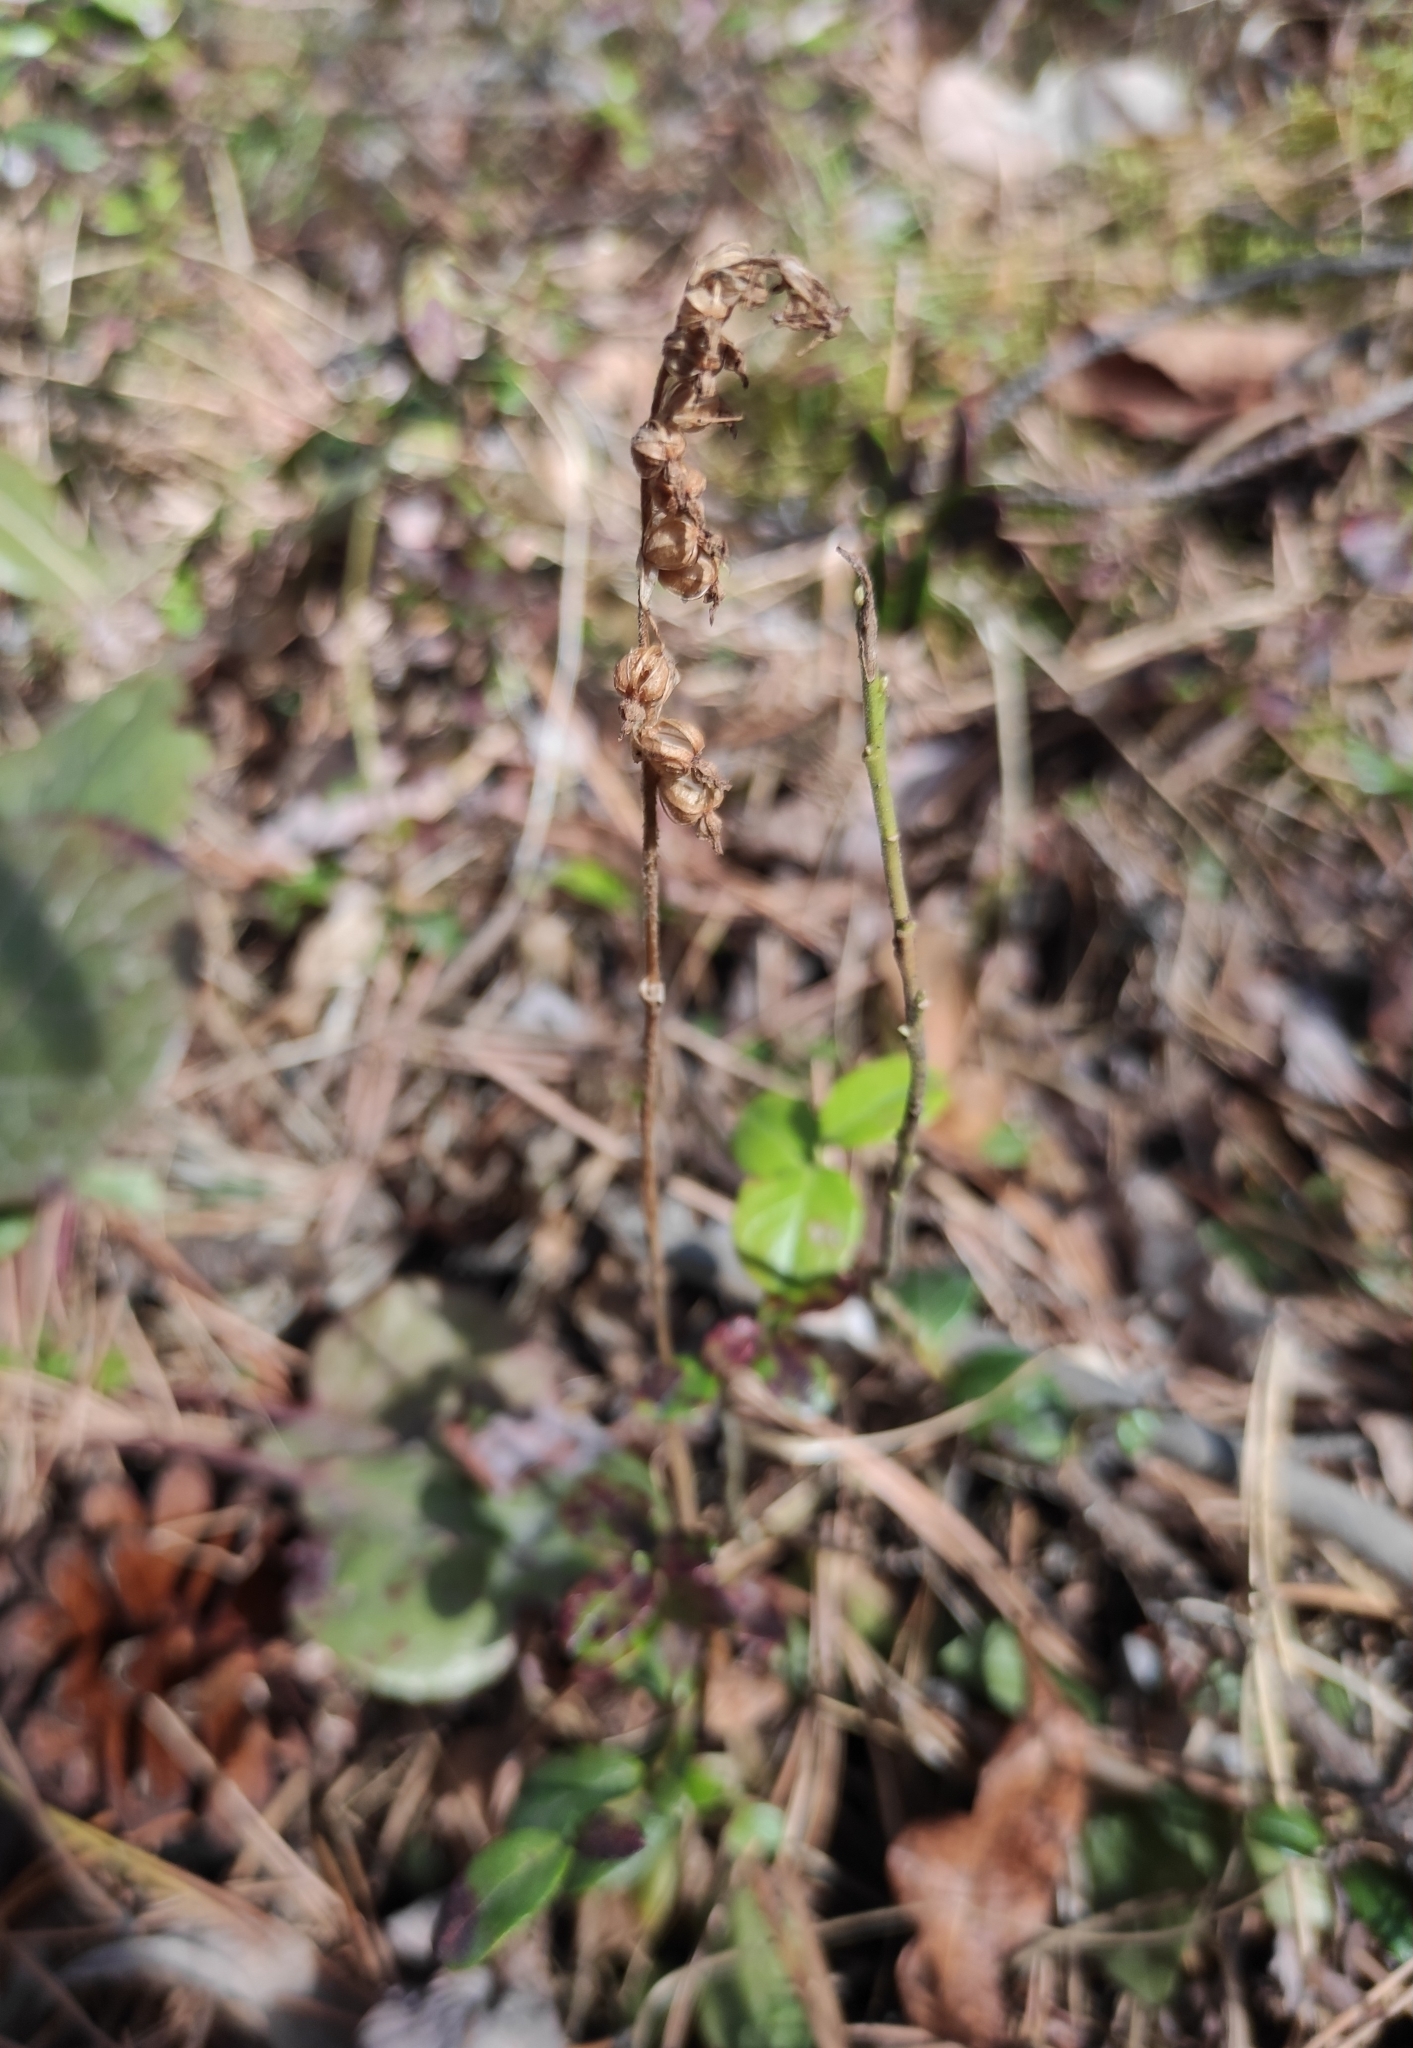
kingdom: Plantae
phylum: Tracheophyta
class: Liliopsida
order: Asparagales
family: Orchidaceae
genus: Goodyera
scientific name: Goodyera repens
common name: Creeping lady's-tresses
